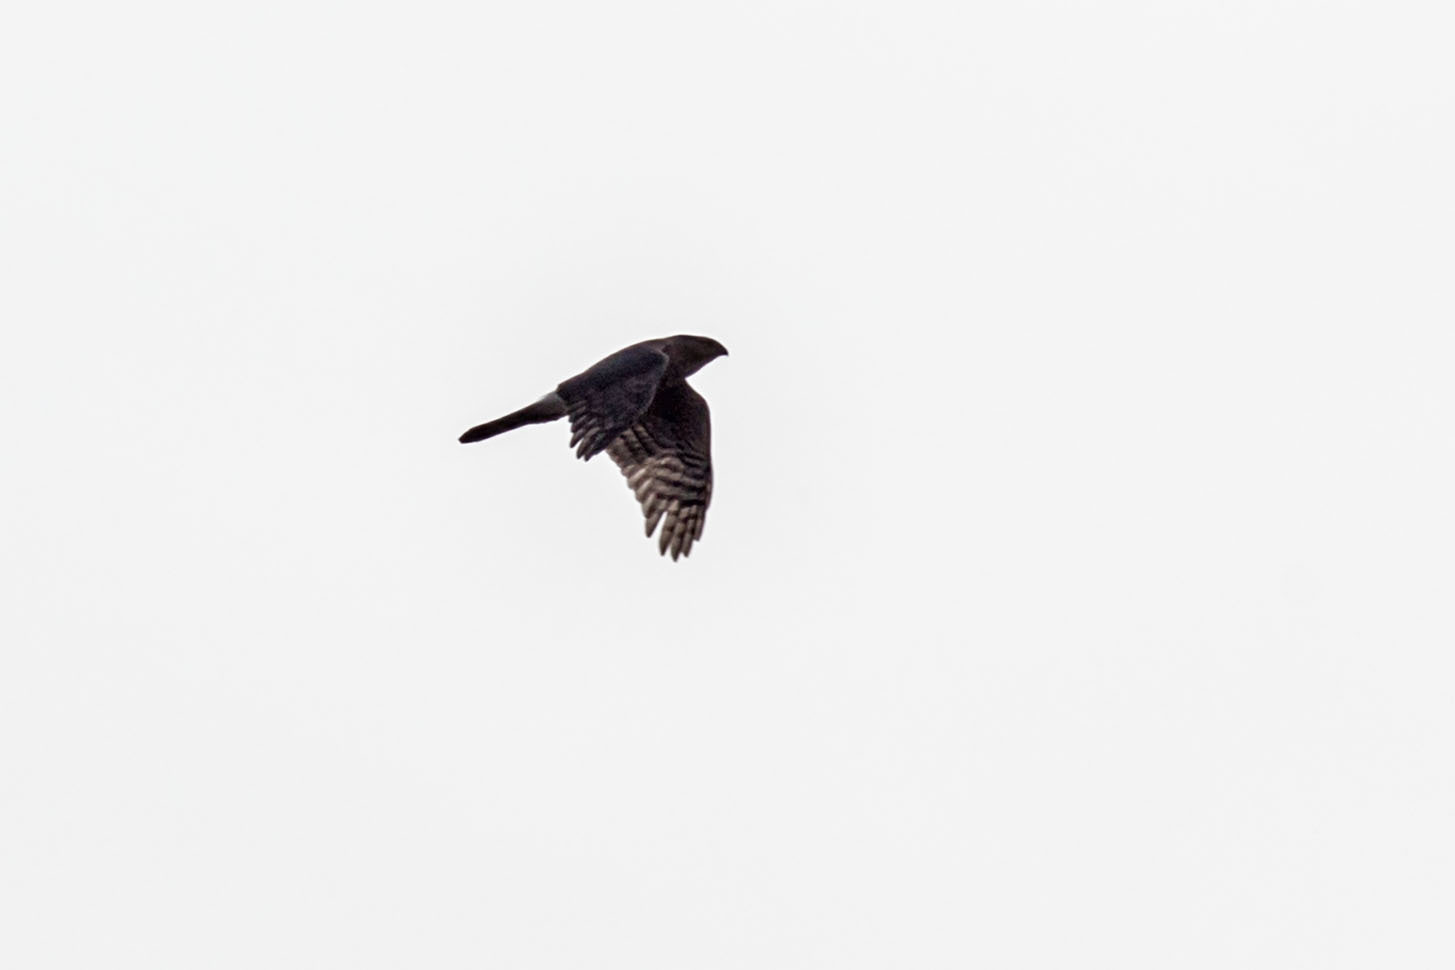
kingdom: Animalia
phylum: Chordata
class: Aves
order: Accipitriformes
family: Accipitridae
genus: Accipiter
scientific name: Accipiter cooperii
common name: Cooper's hawk
